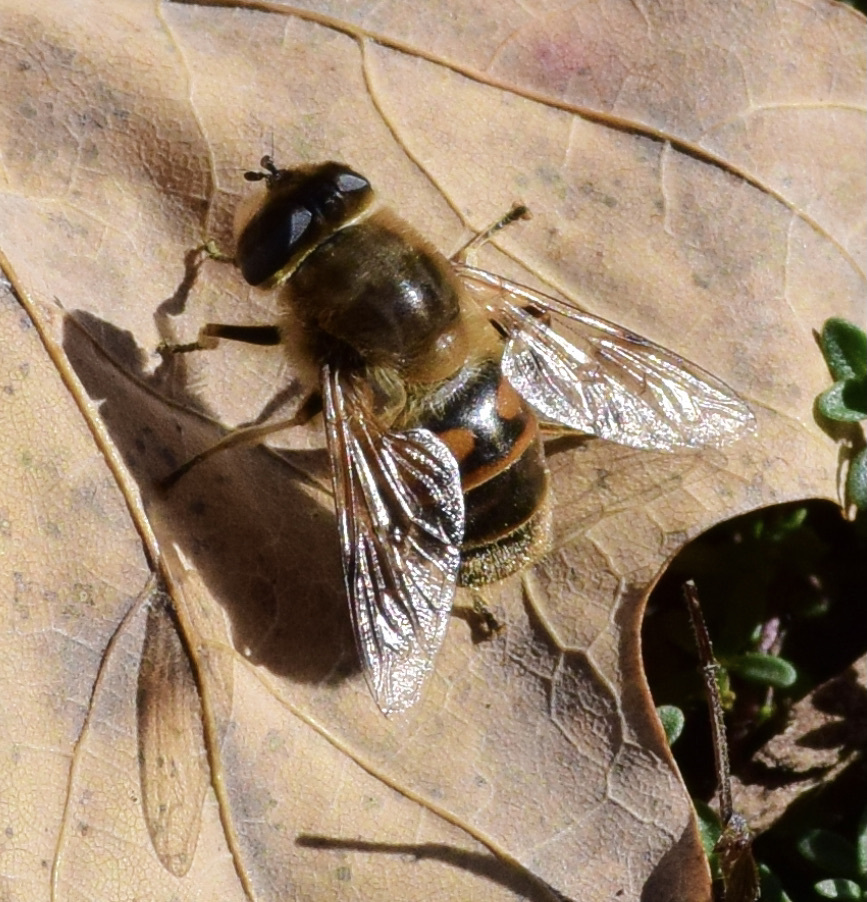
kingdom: Animalia
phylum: Arthropoda
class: Insecta
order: Diptera
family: Syrphidae
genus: Eristalis
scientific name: Eristalis tenax
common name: Drone fly
